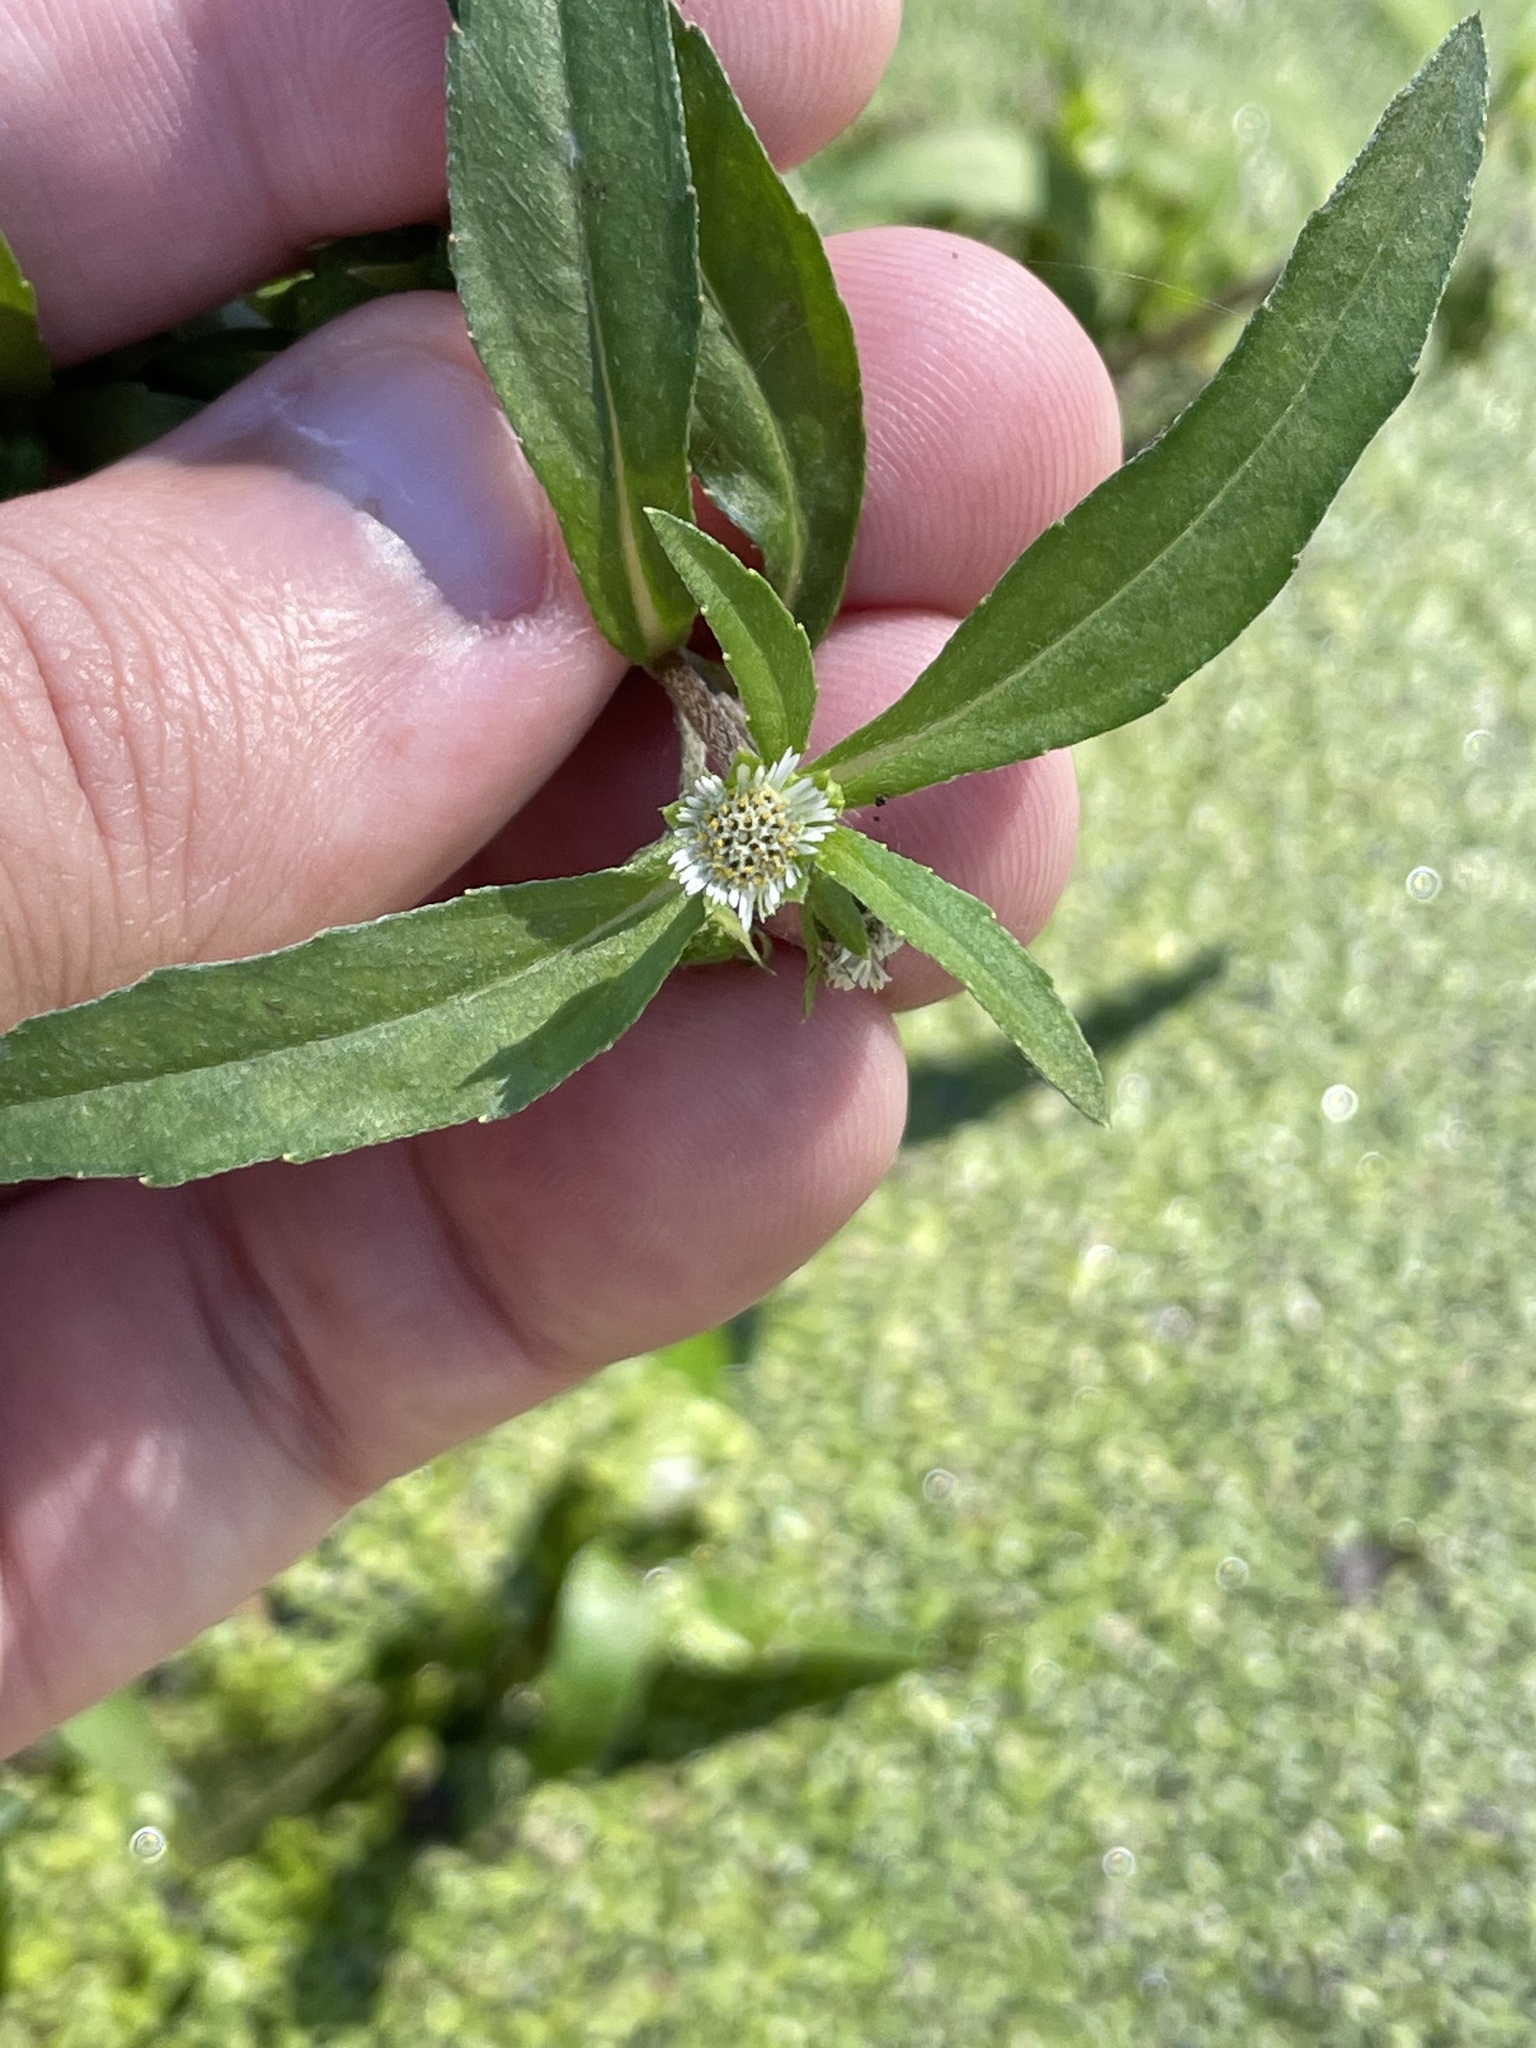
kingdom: Plantae
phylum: Tracheophyta
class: Magnoliopsida
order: Asterales
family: Asteraceae
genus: Eclipta
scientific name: Eclipta prostrata
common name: False daisy
